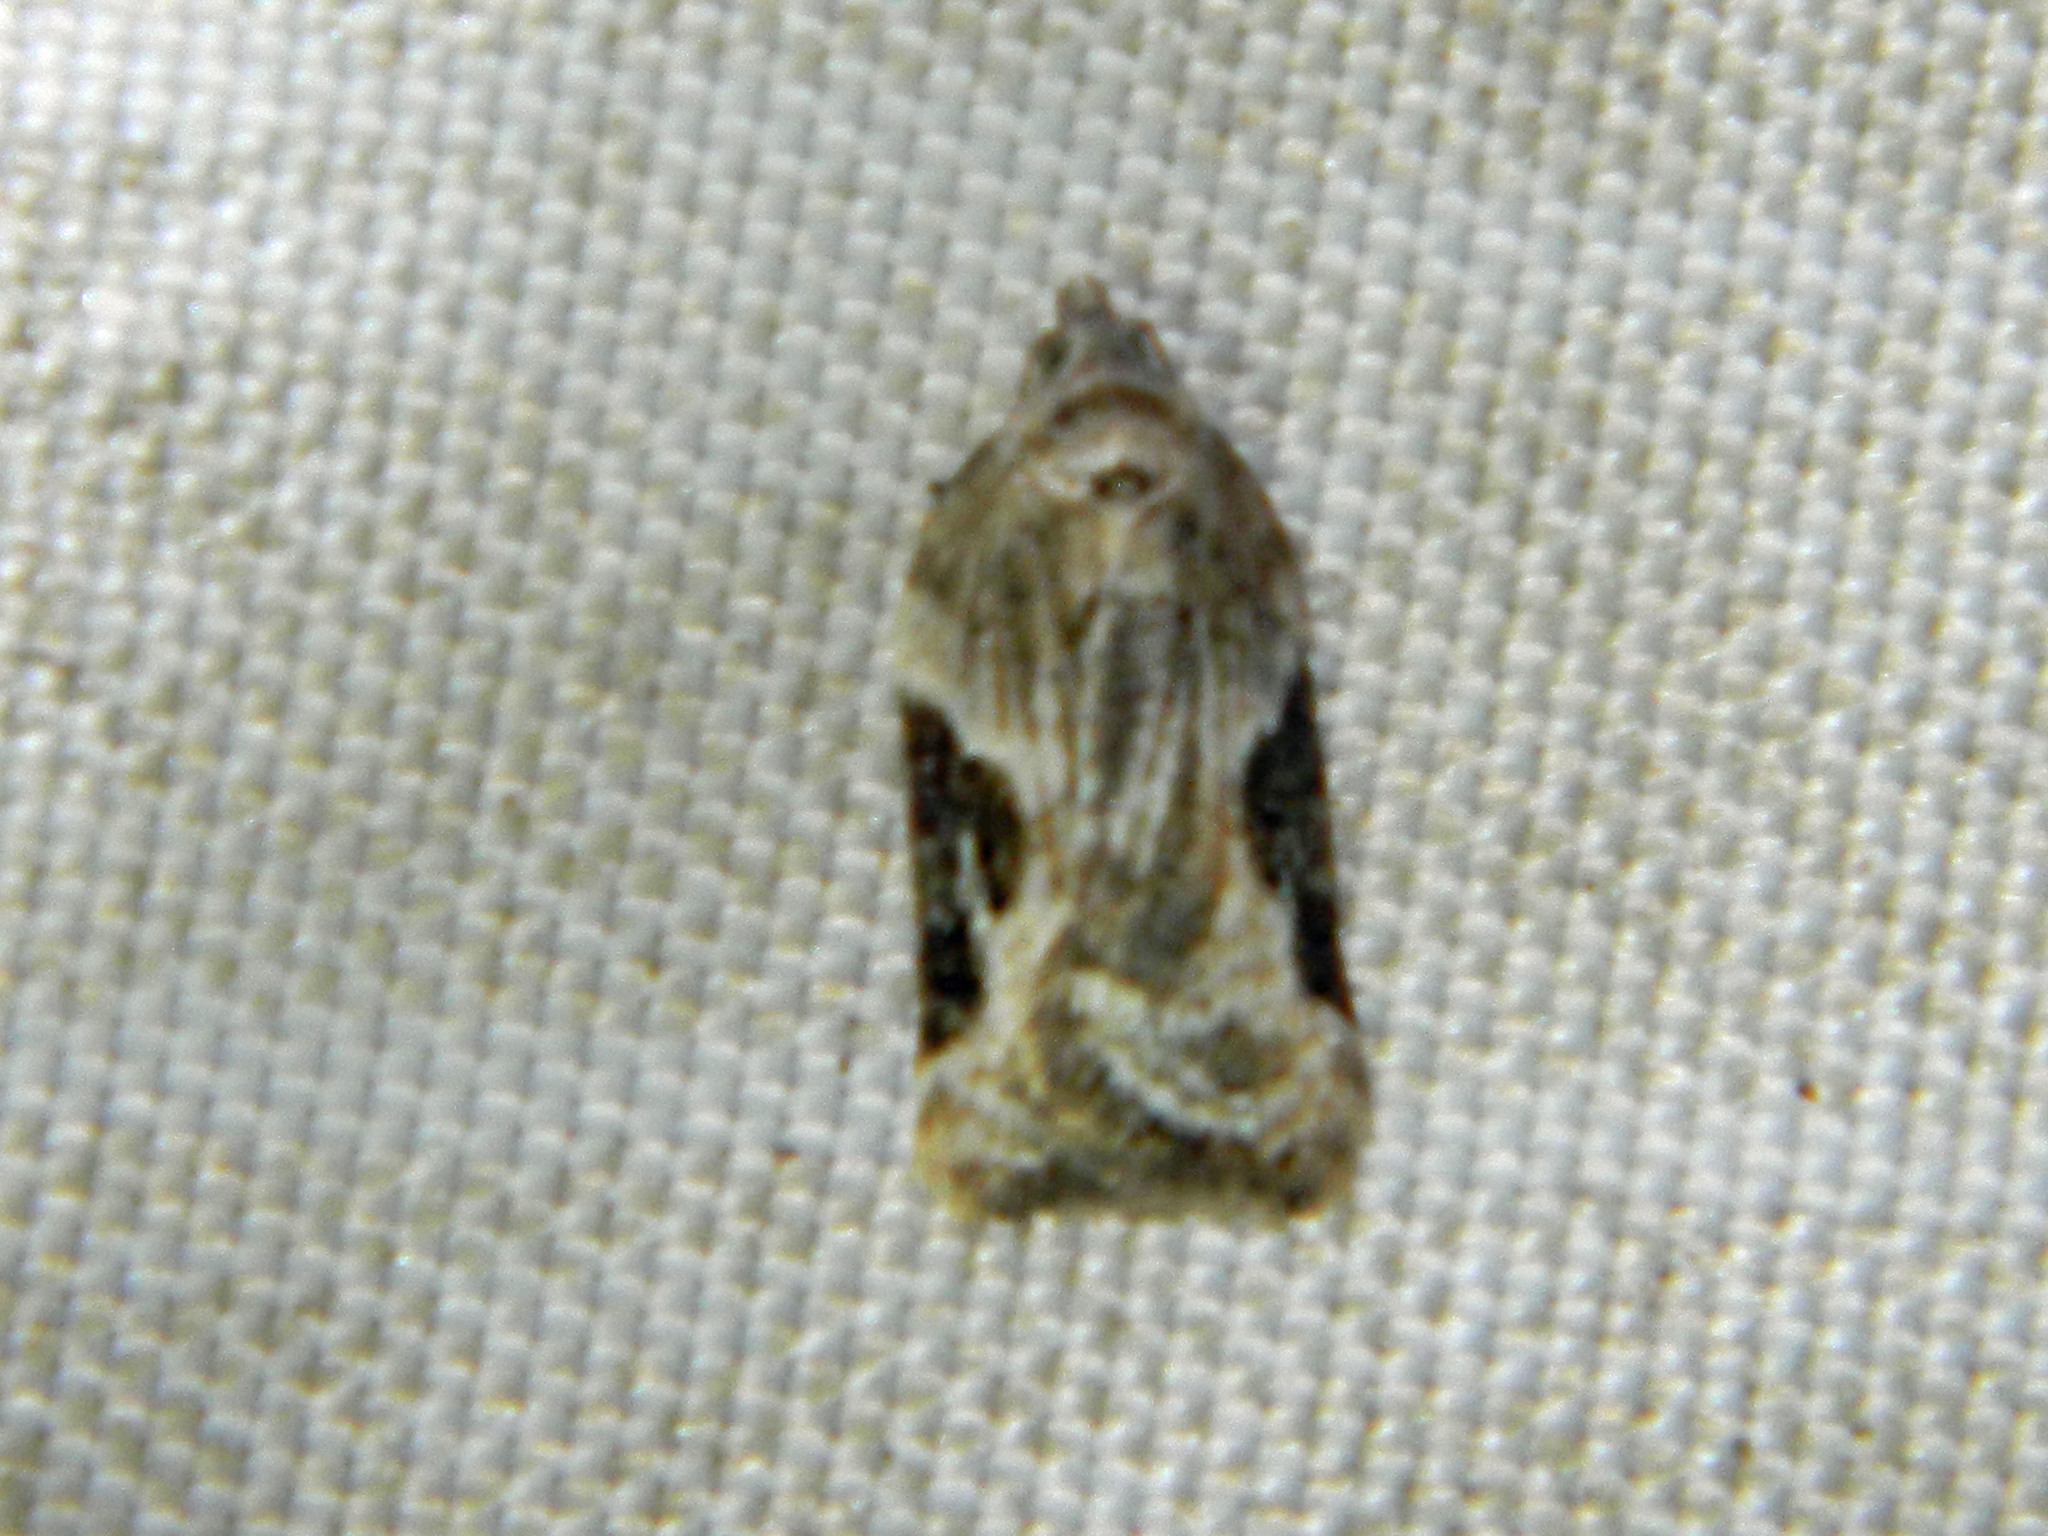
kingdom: Animalia
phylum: Arthropoda
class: Insecta
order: Lepidoptera
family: Tortricidae
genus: Acleris
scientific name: Acleris forbesana
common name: Forbes' acleris moth
